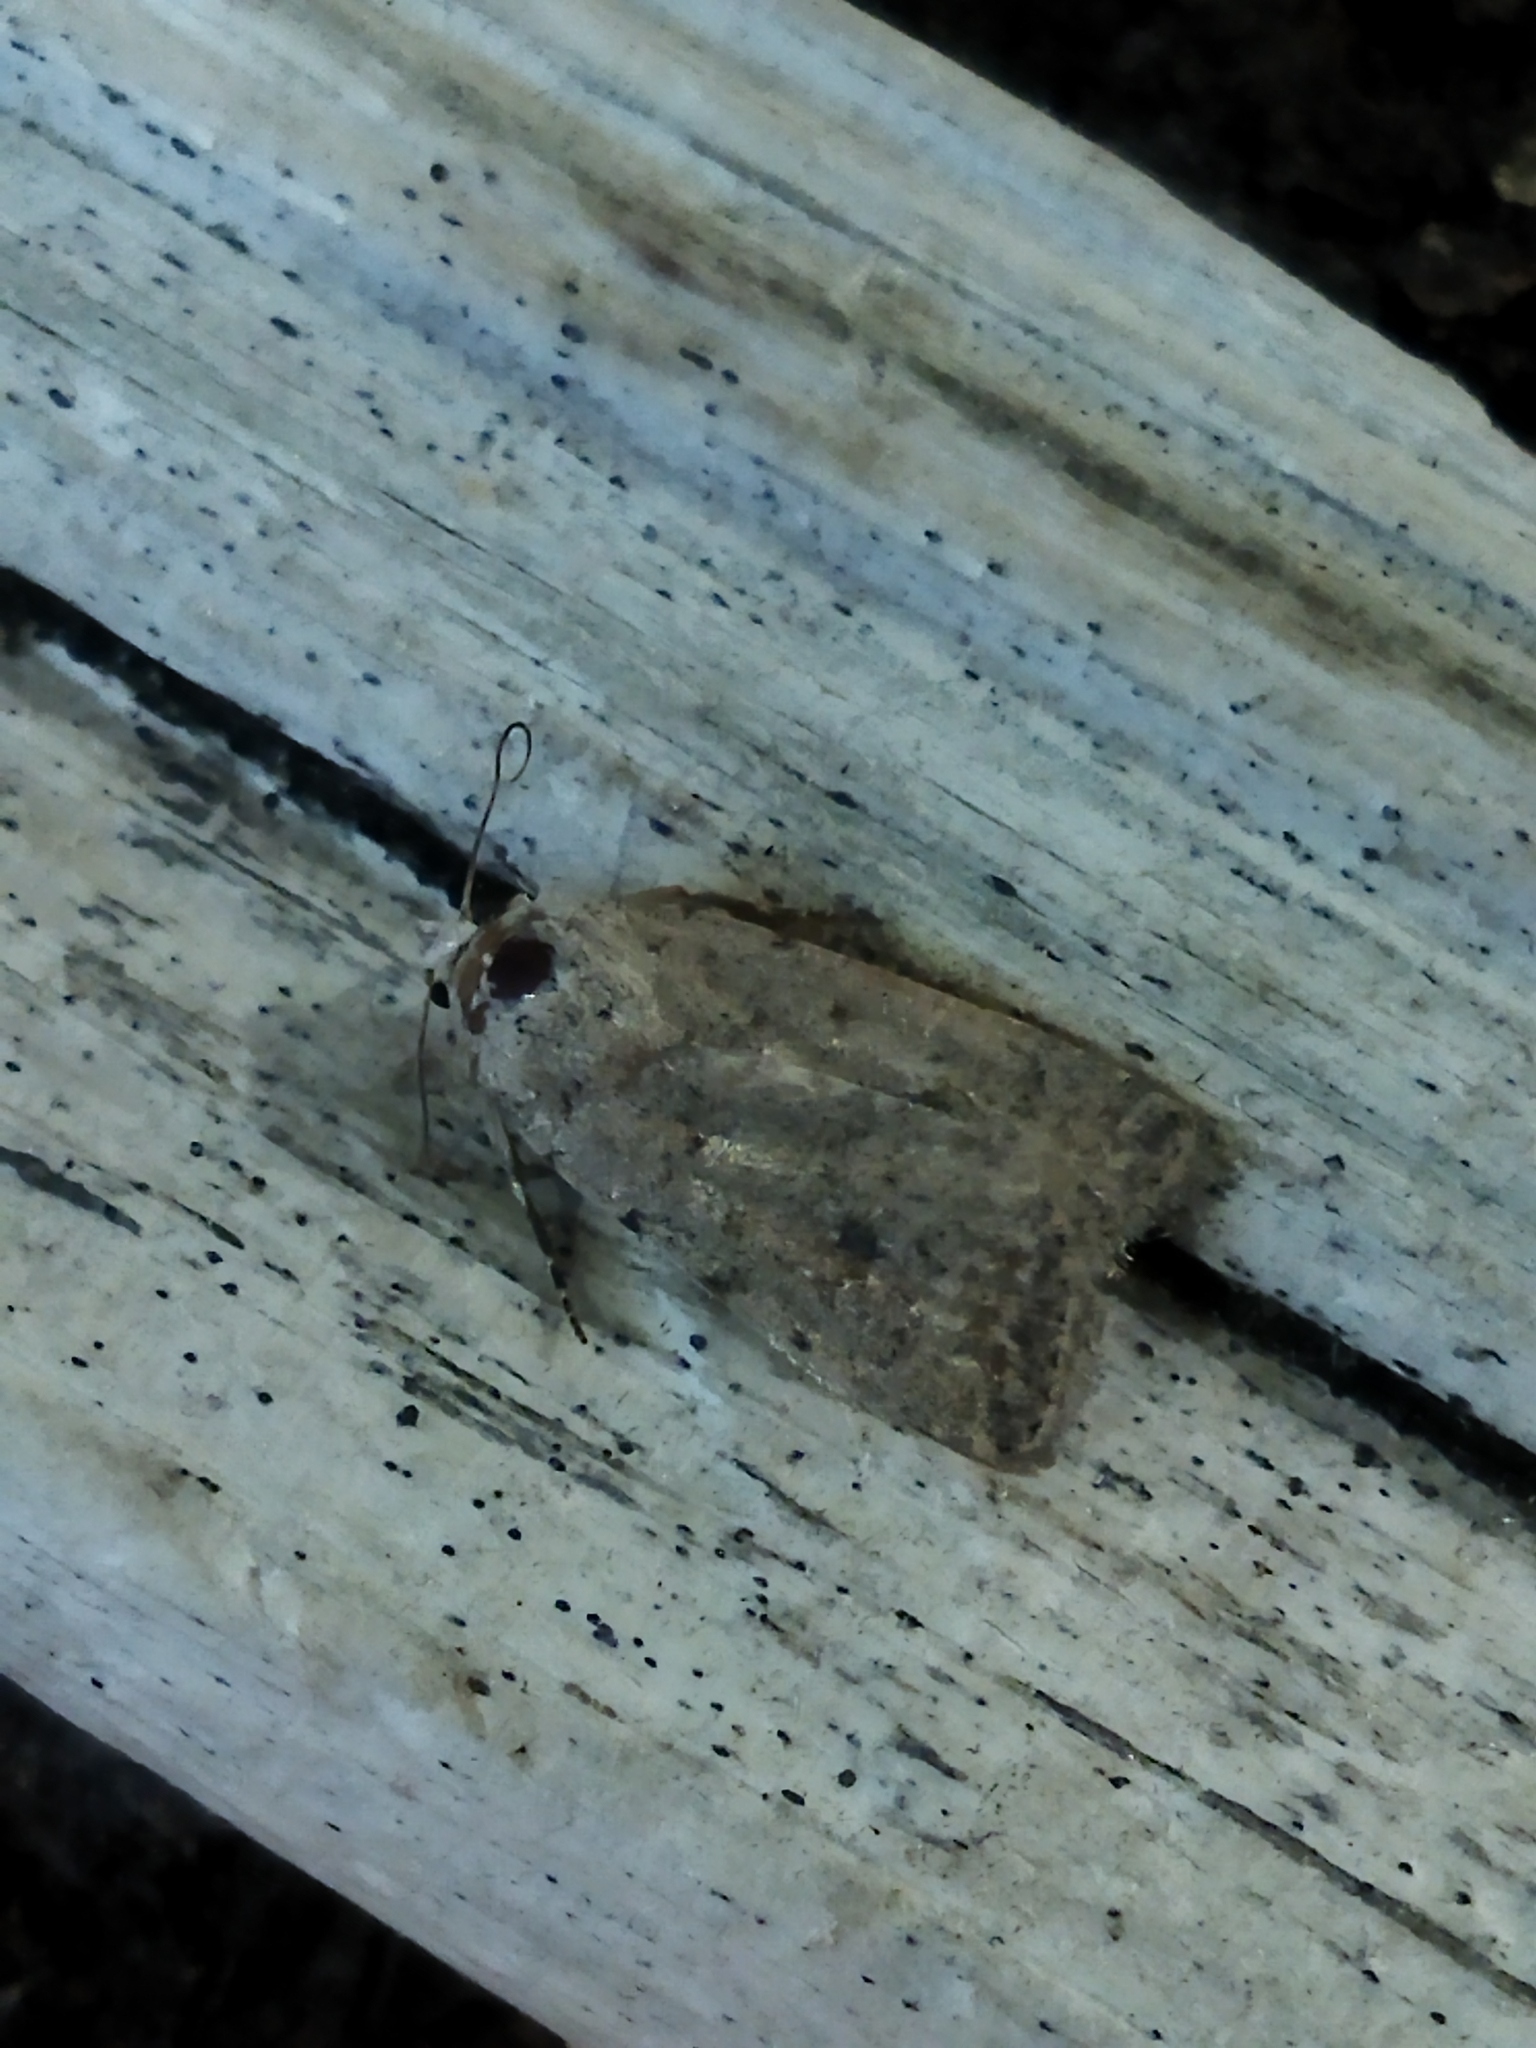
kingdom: Animalia
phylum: Arthropoda
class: Insecta
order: Lepidoptera
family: Noctuidae
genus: Caradrina
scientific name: Caradrina clavipalpis
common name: Pale mottled willow
